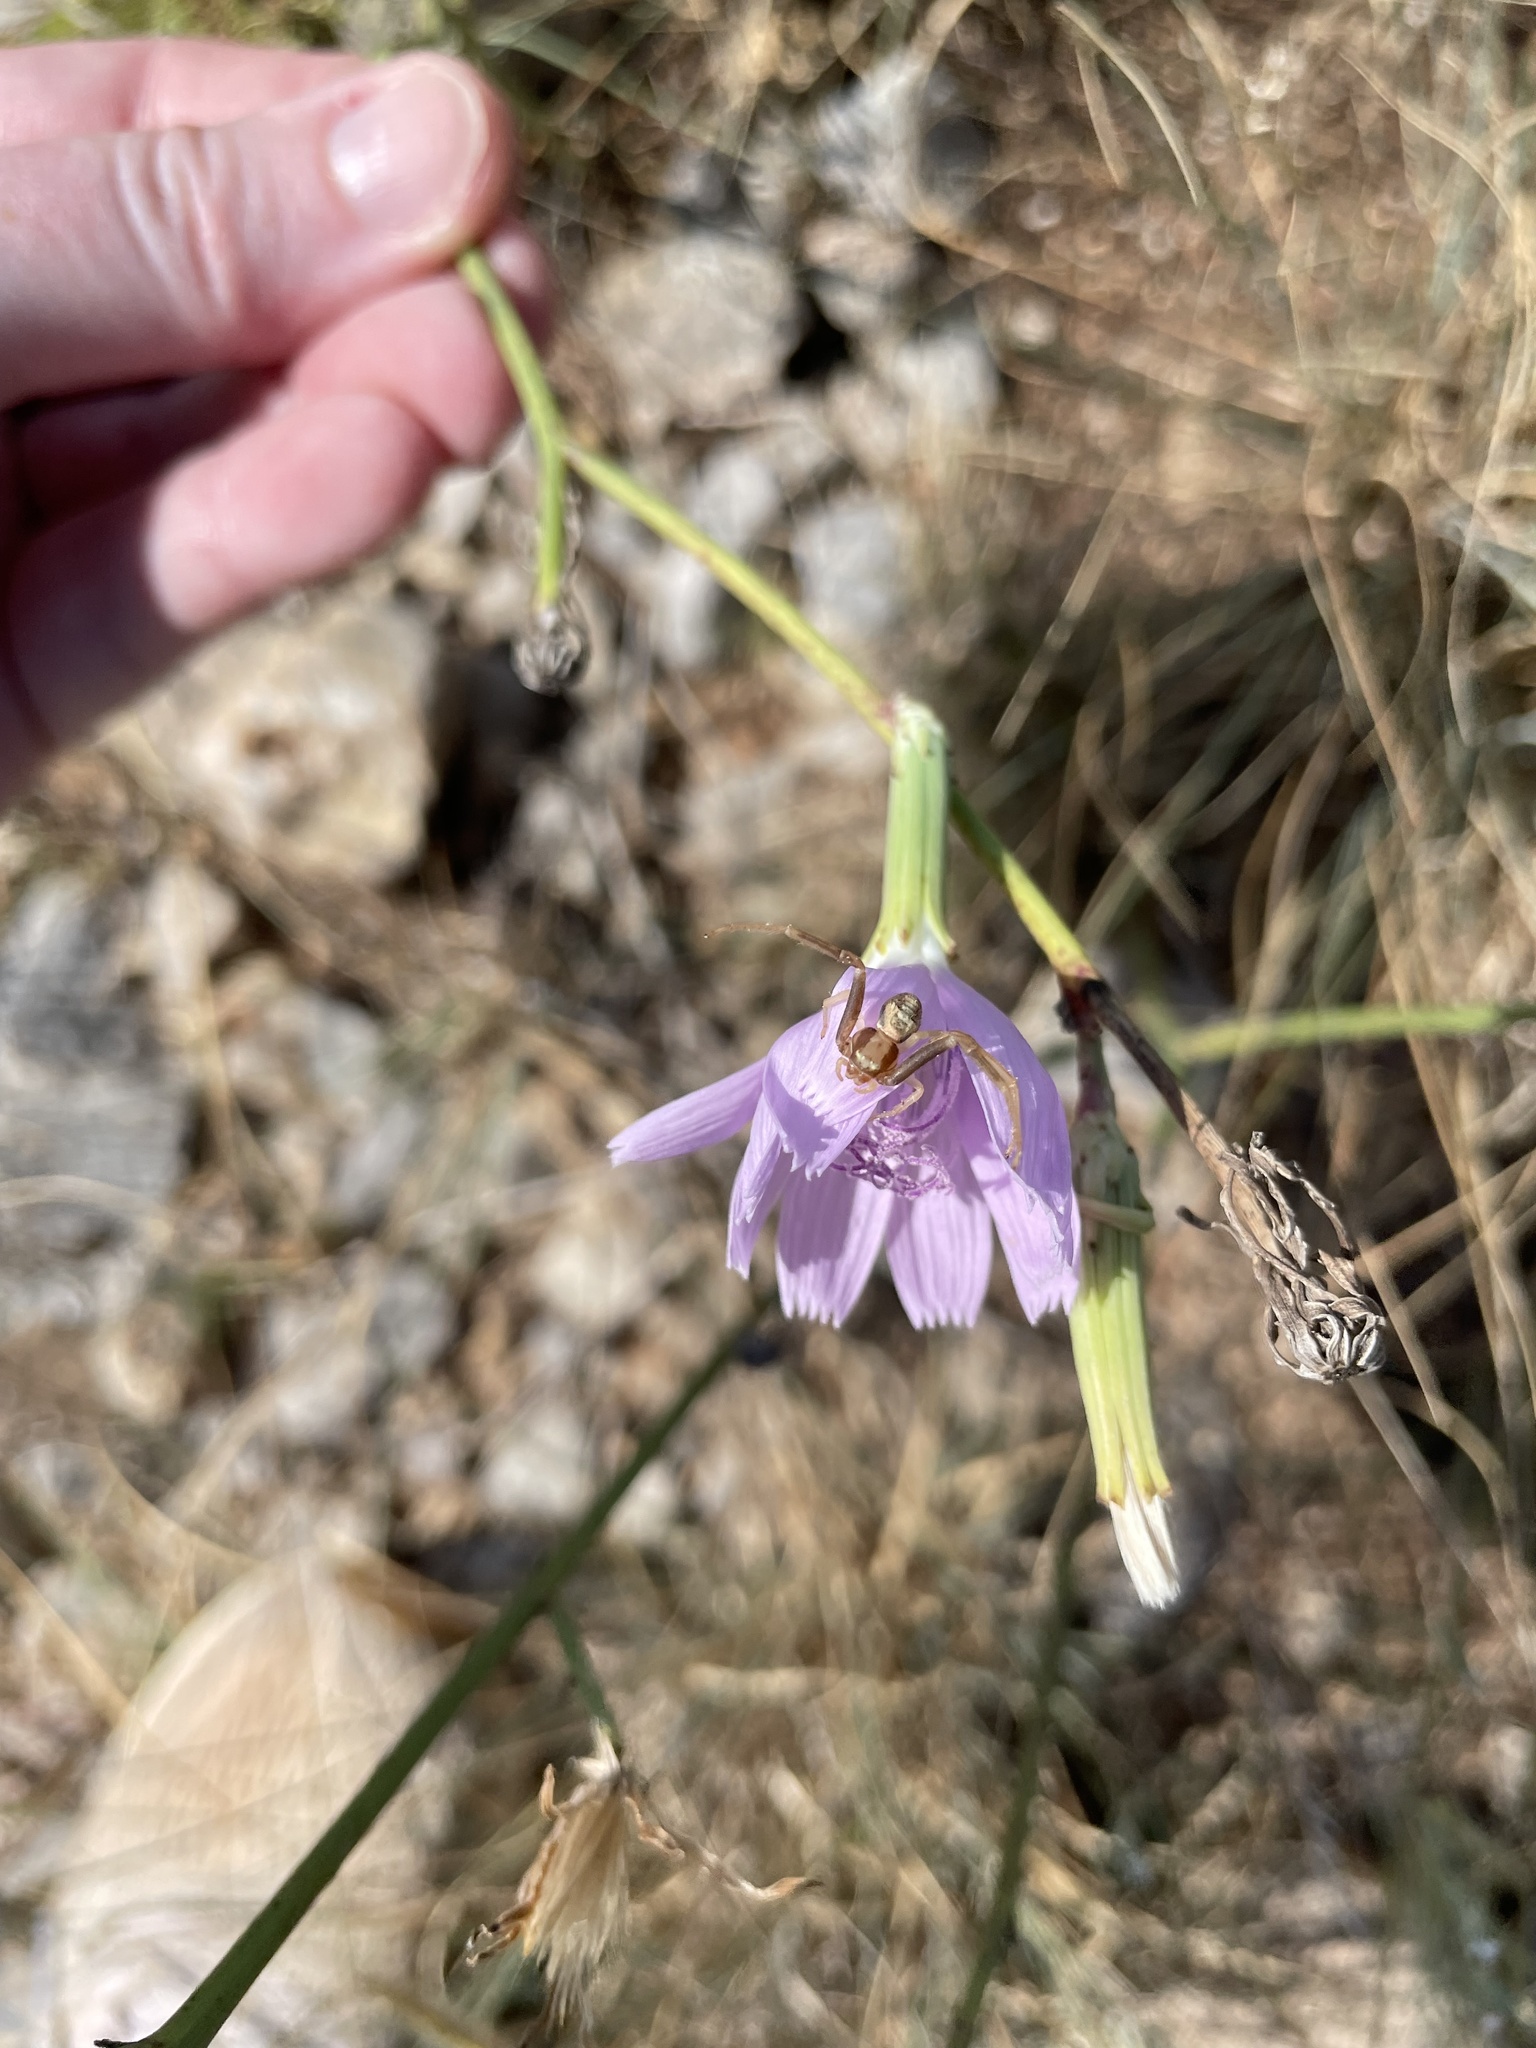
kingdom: Plantae
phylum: Tracheophyta
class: Magnoliopsida
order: Asterales
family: Asteraceae
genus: Lygodesmia
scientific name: Lygodesmia texana
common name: Texas skeleton-plant
